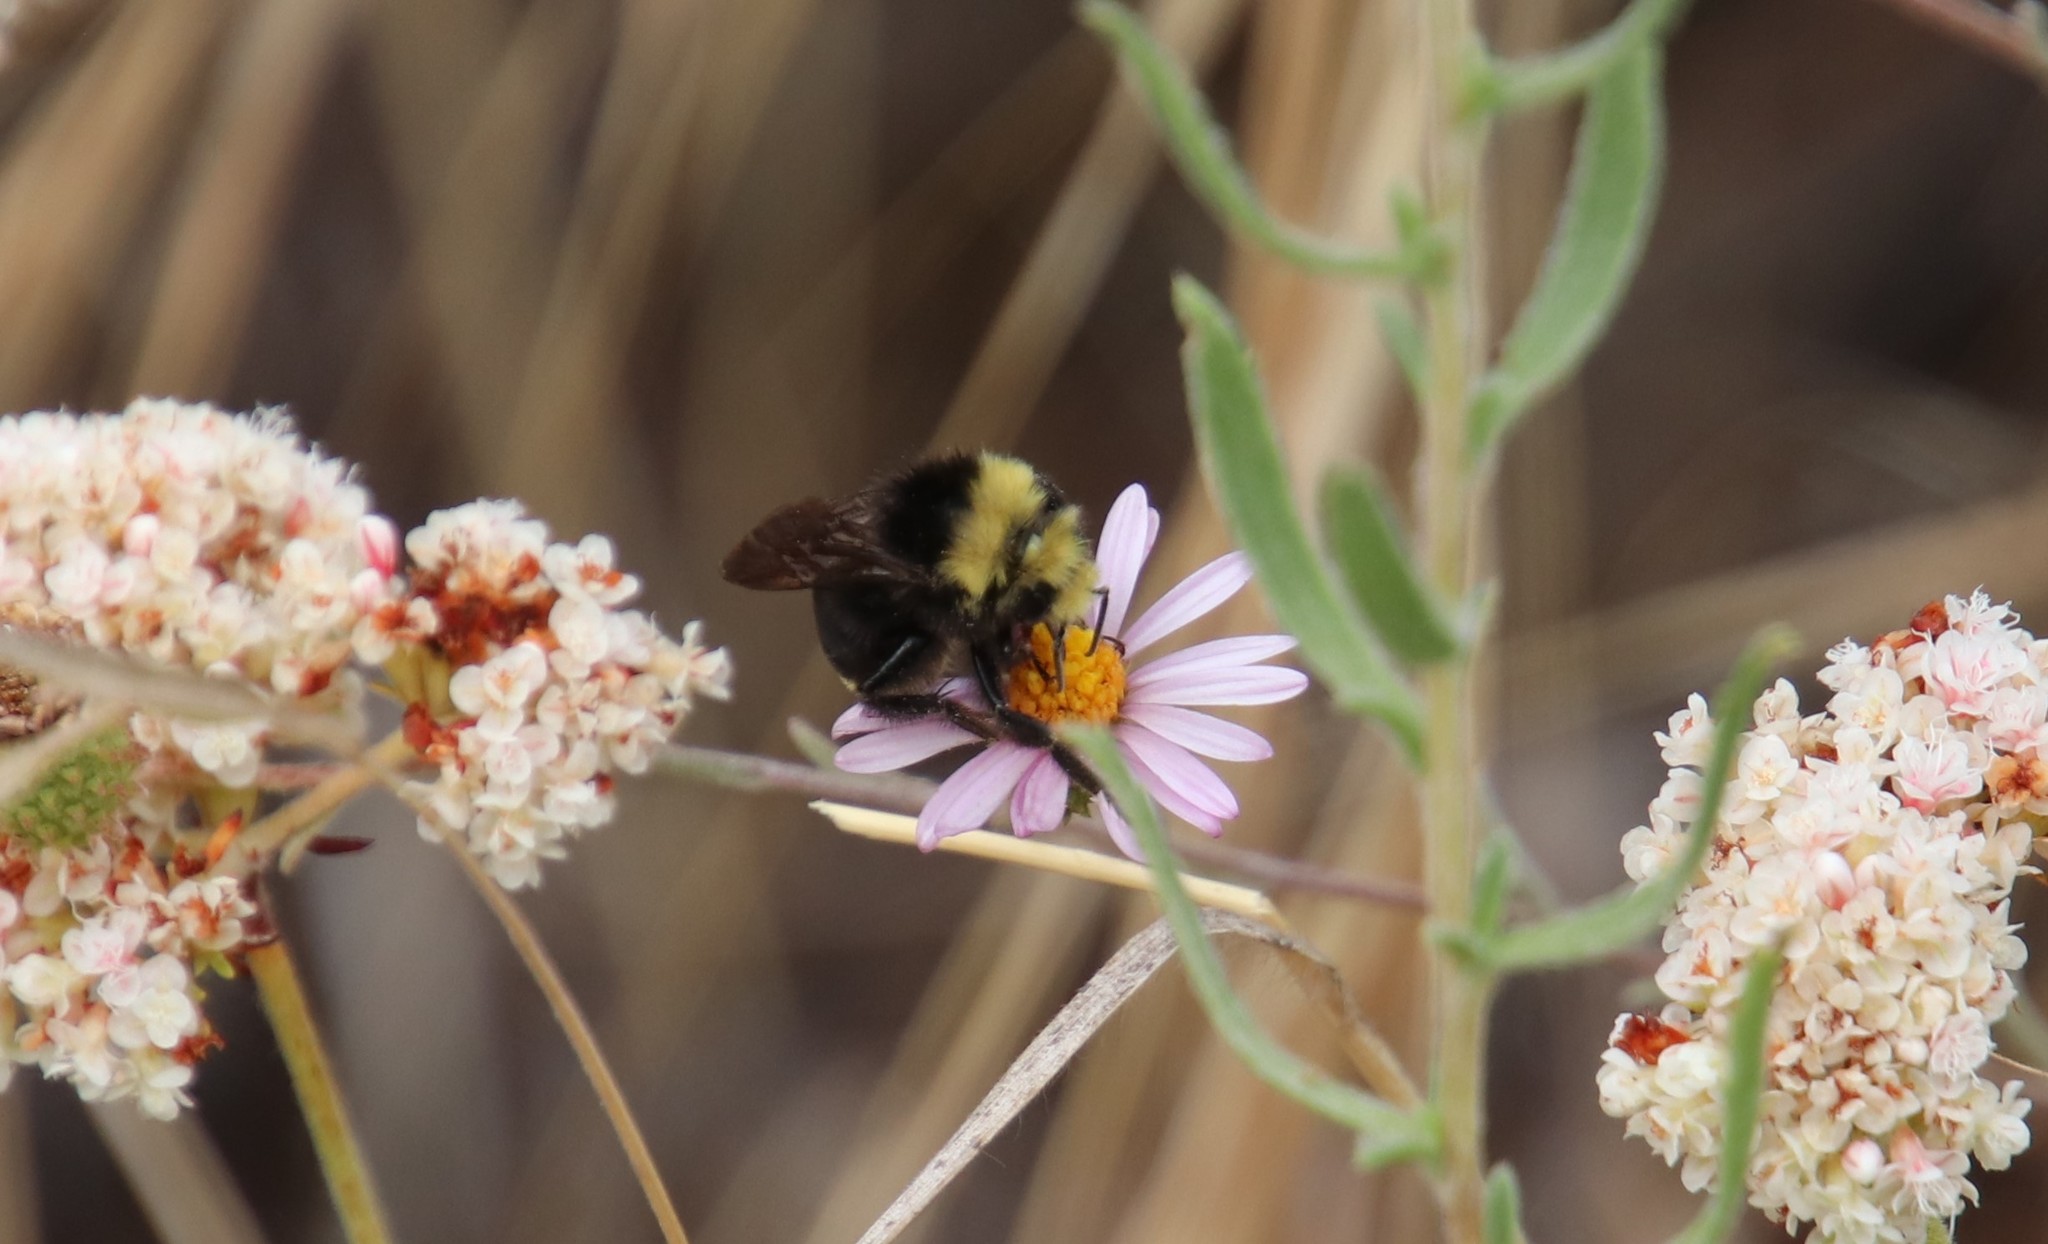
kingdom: Animalia
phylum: Arthropoda
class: Insecta
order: Hymenoptera
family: Apidae
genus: Bombus
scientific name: Bombus vosnesenskii
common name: Vosnesensky bumble bee
